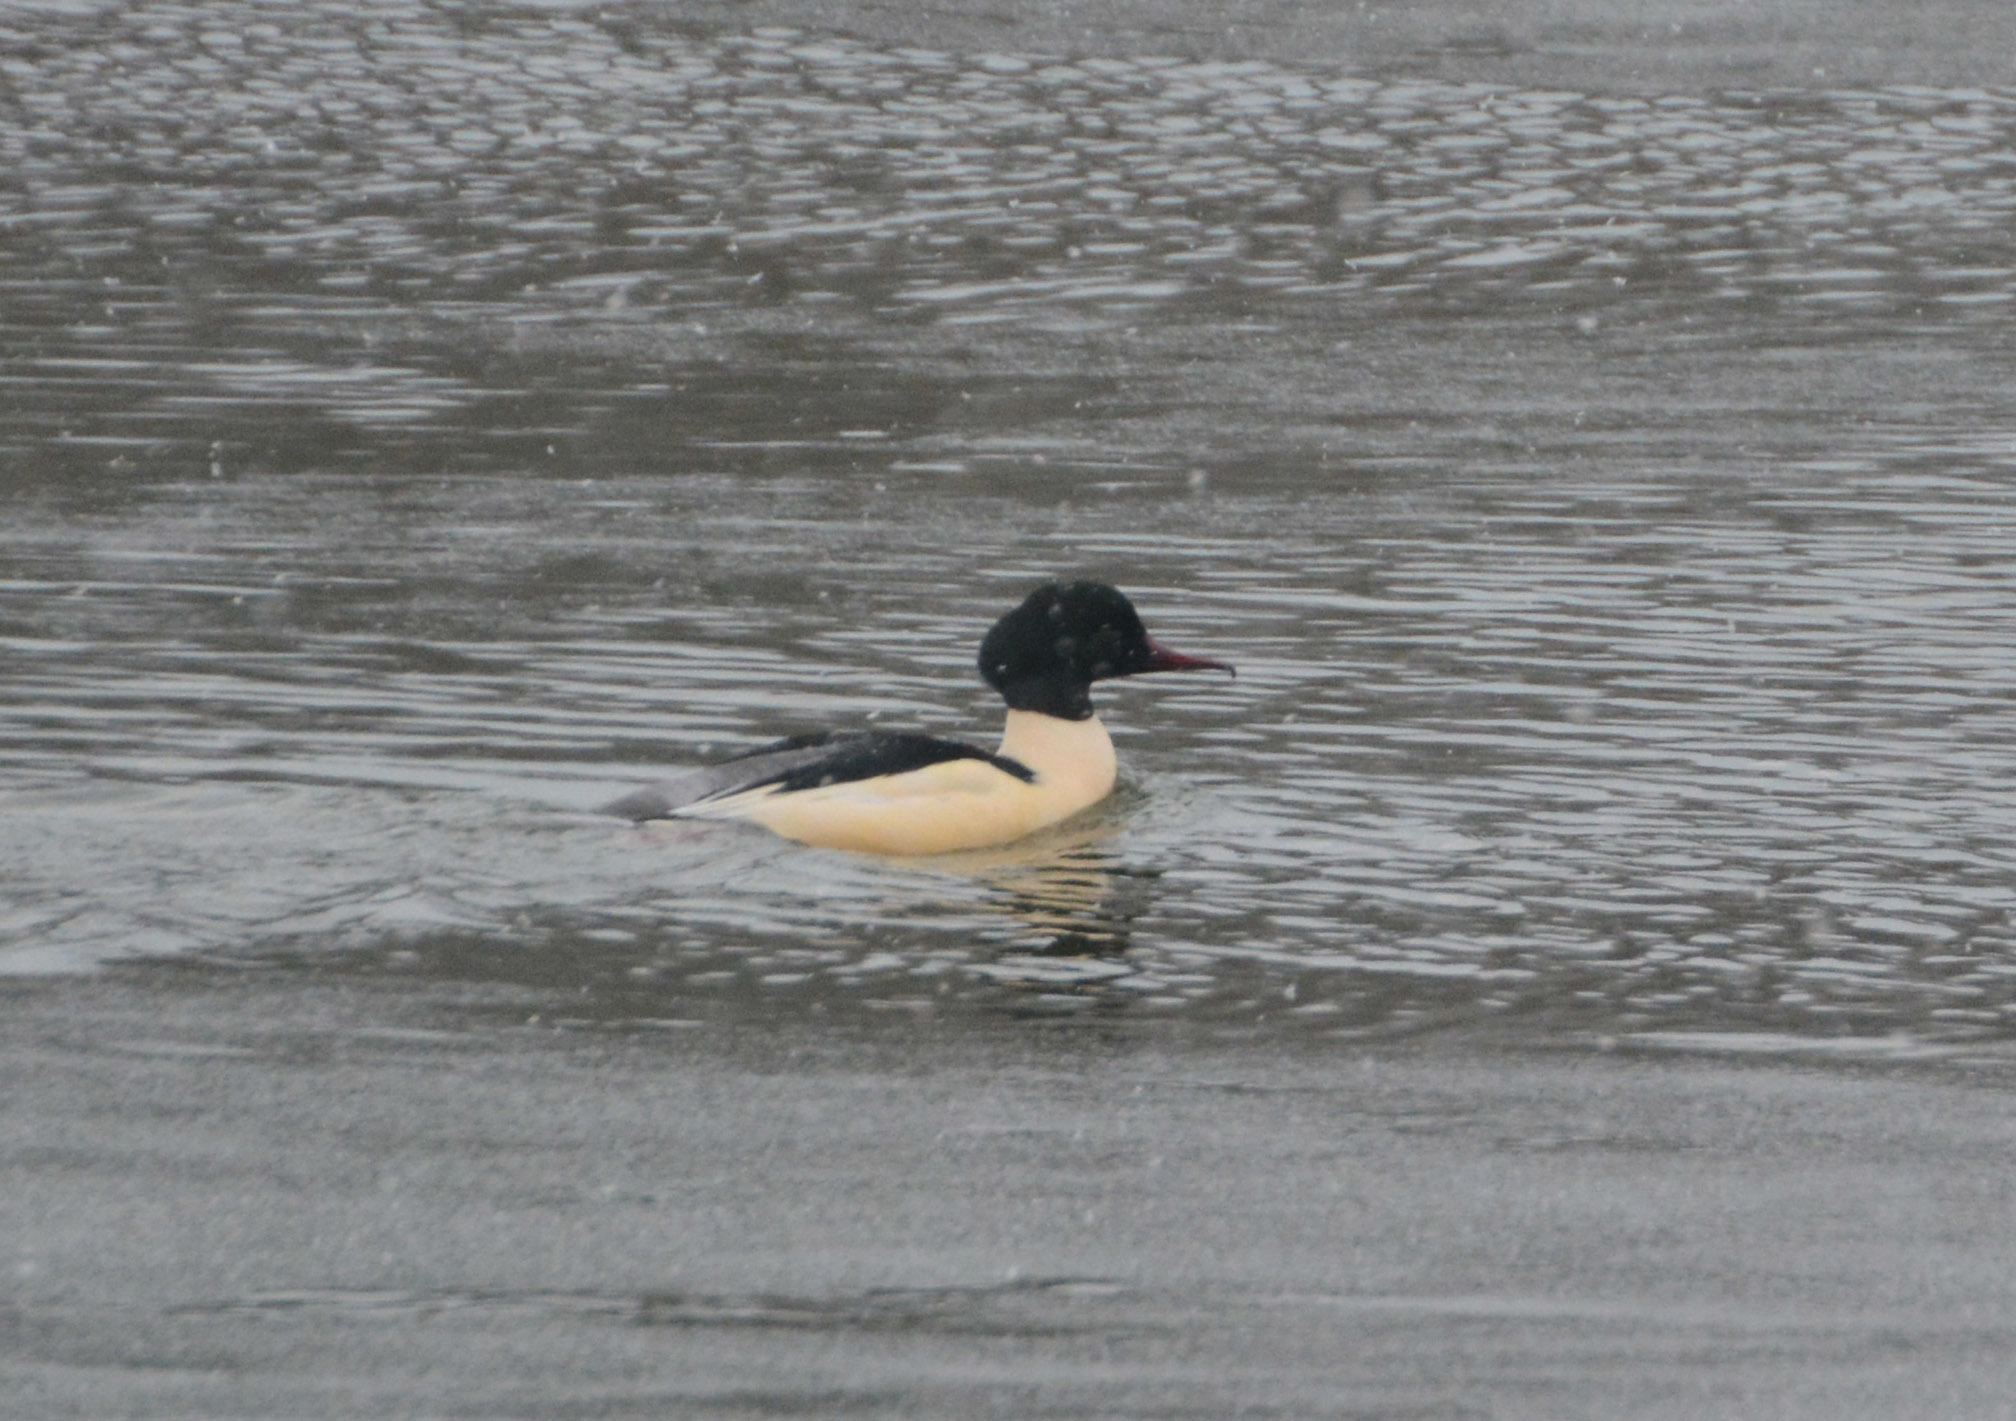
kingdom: Animalia
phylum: Chordata
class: Aves
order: Anseriformes
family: Anatidae
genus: Mergus
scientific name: Mergus merganser
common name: Common merganser
